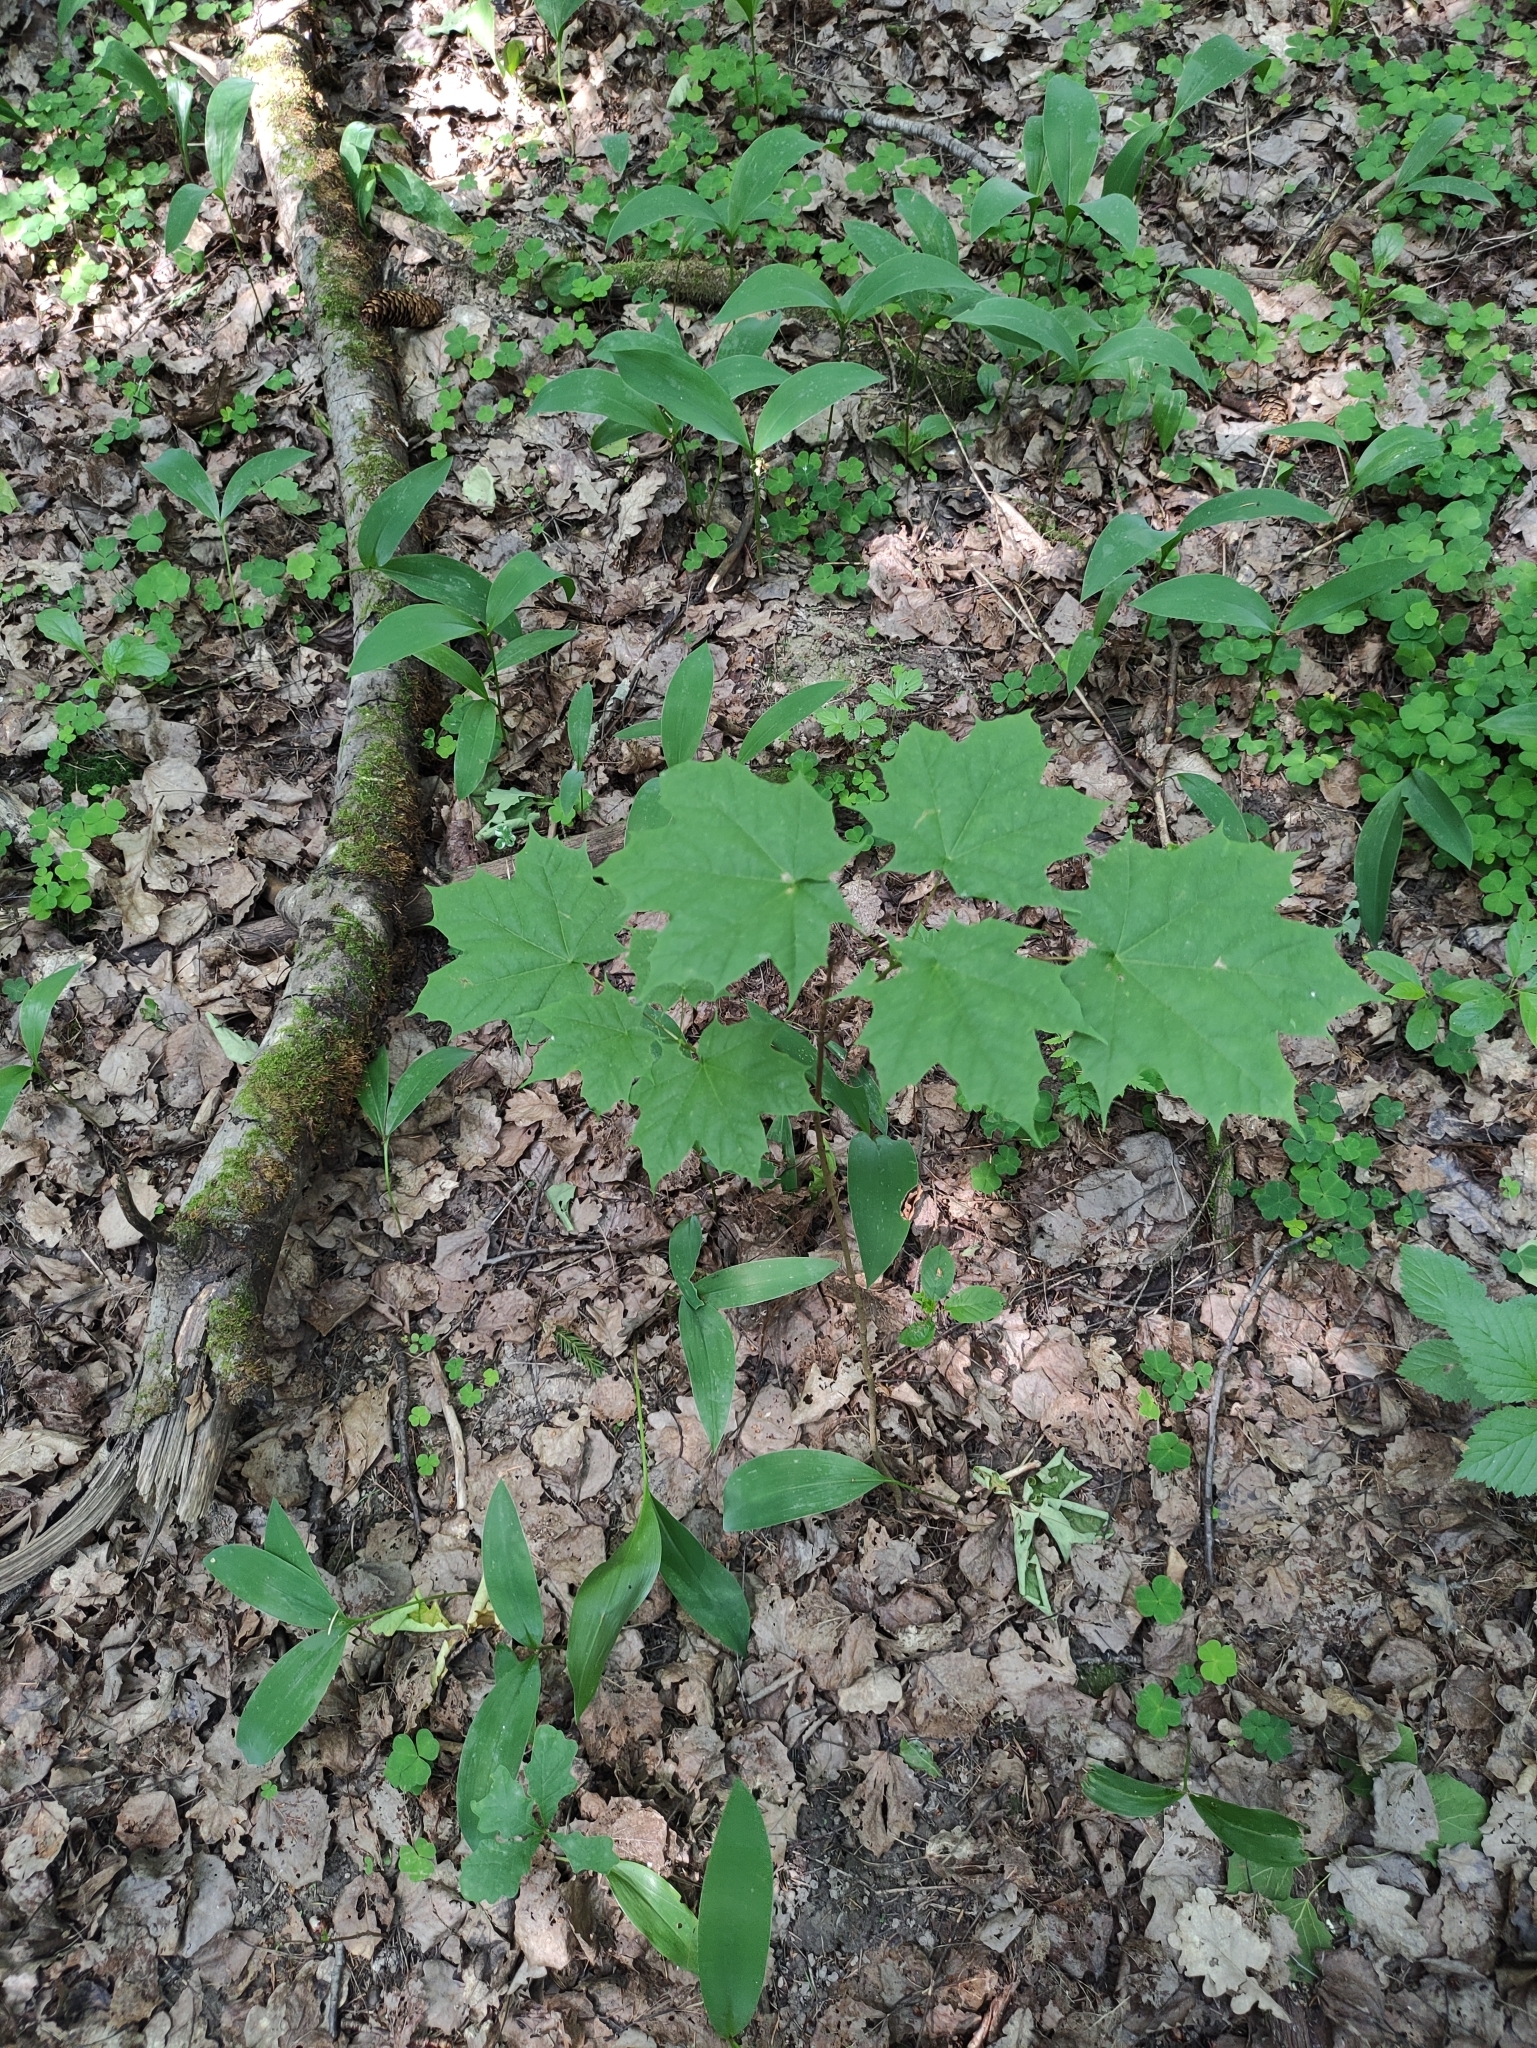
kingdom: Plantae
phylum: Tracheophyta
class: Magnoliopsida
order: Sapindales
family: Sapindaceae
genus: Acer
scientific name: Acer platanoides
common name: Norway maple
